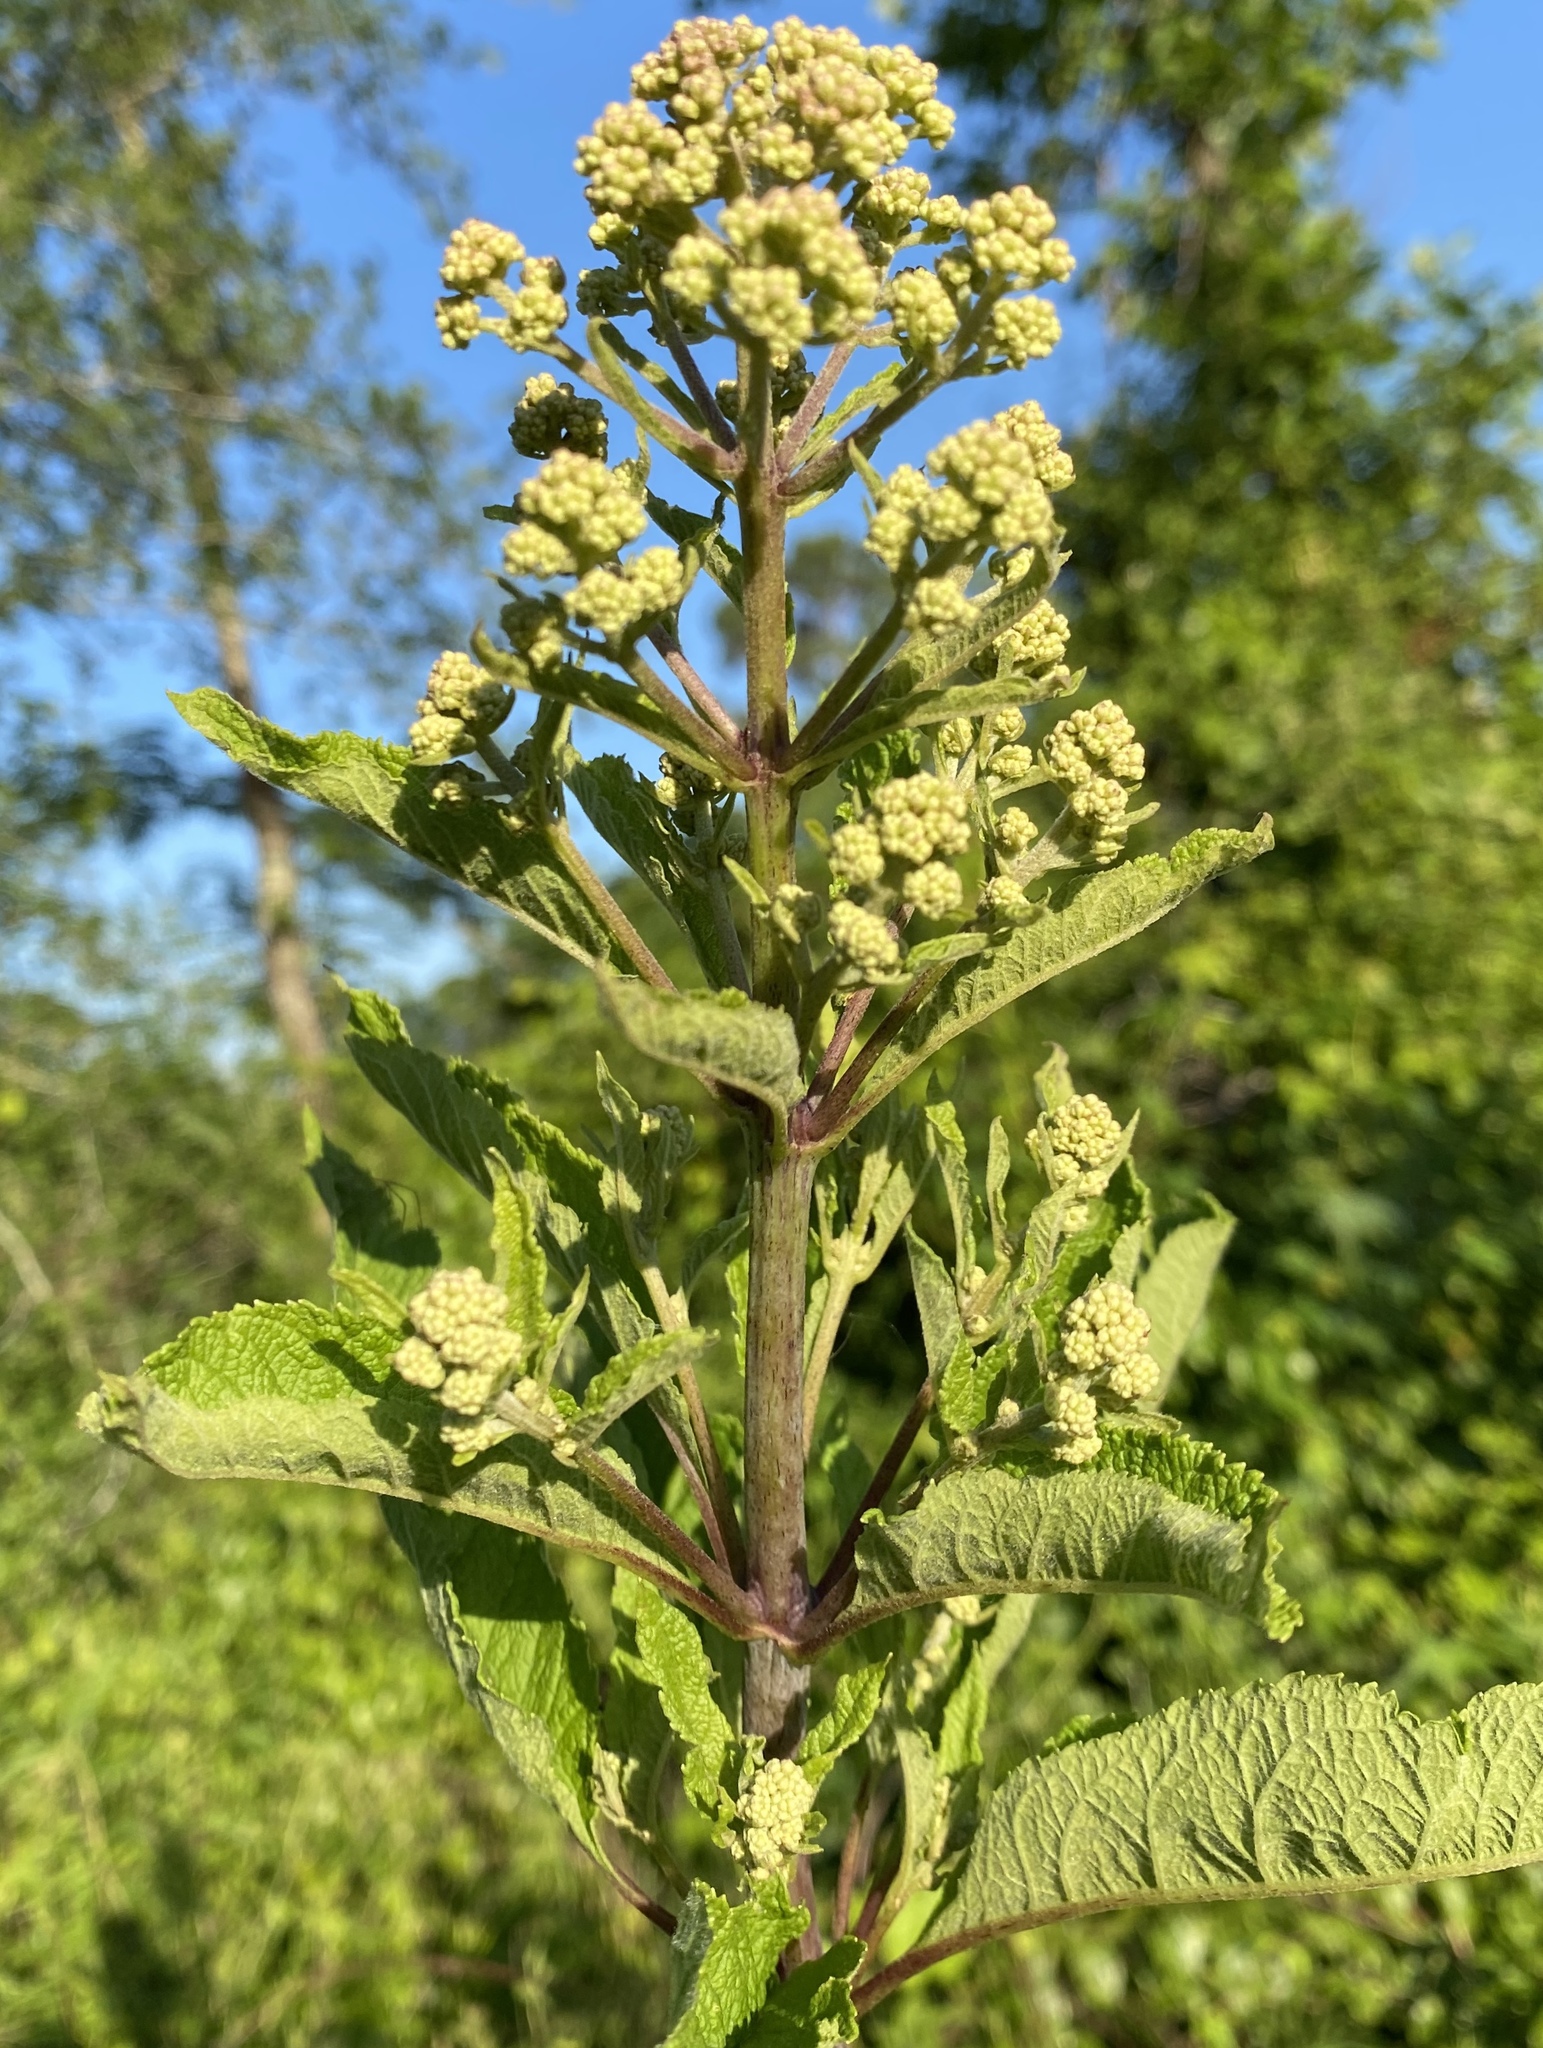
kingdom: Plantae
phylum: Tracheophyta
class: Magnoliopsida
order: Asterales
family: Asteraceae
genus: Eutrochium
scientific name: Eutrochium fistulosum
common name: Trumpetweed
